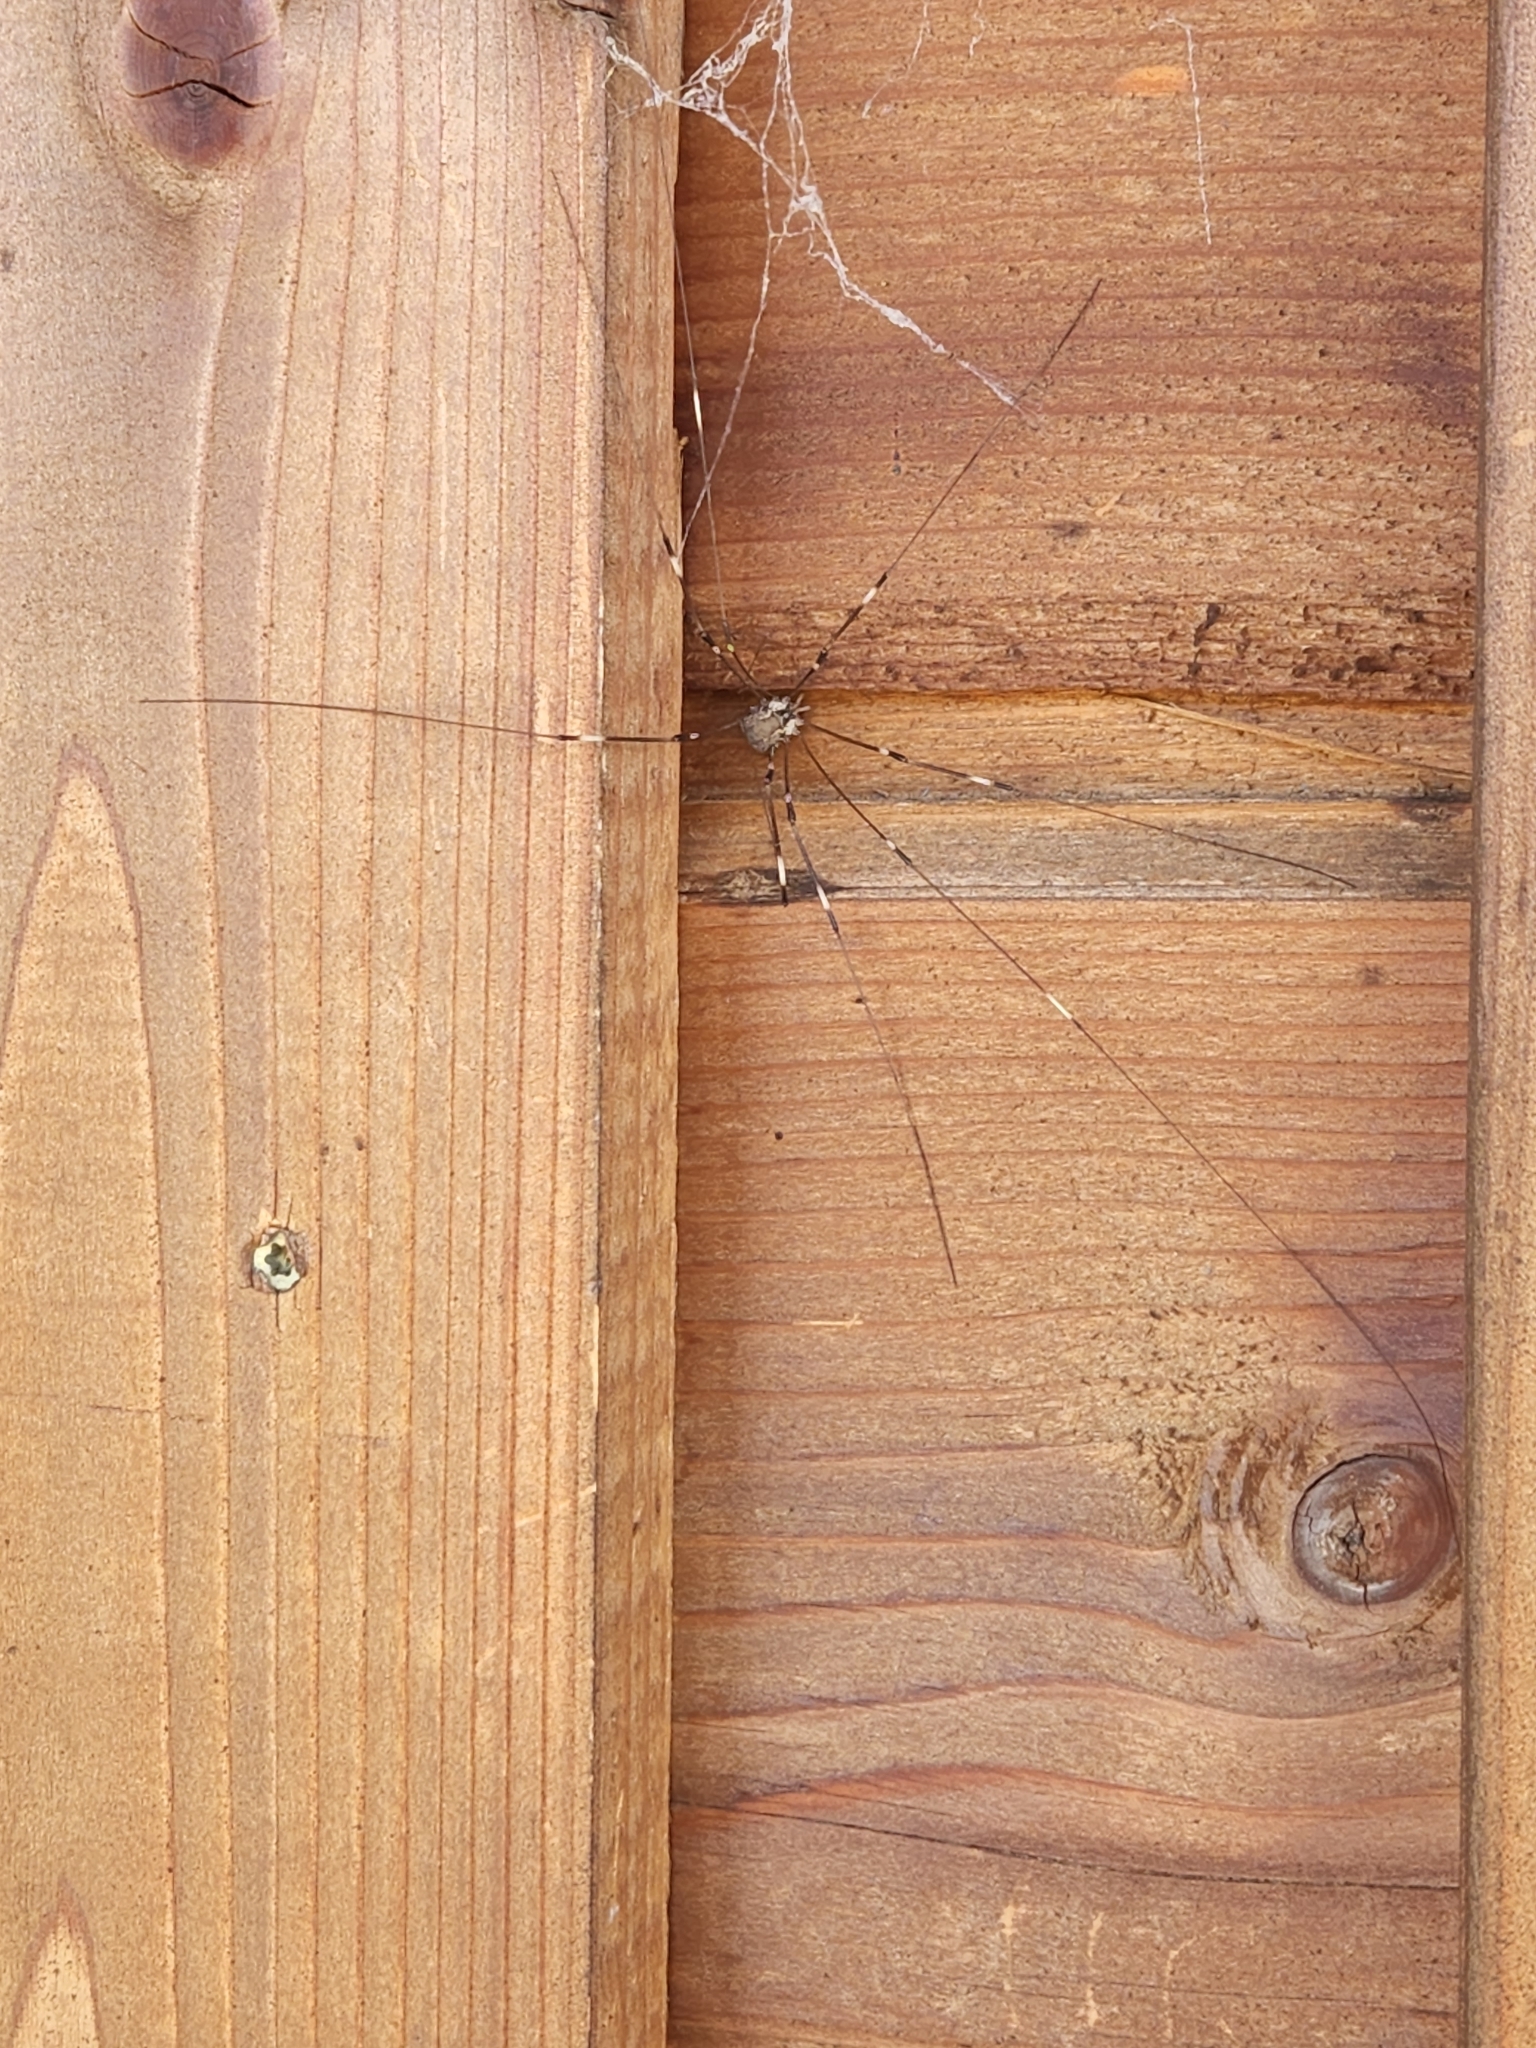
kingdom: Animalia
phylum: Arthropoda
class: Arachnida
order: Opiliones
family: Sclerosomatidae
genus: Leiobunum
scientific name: Leiobunum townsendi
